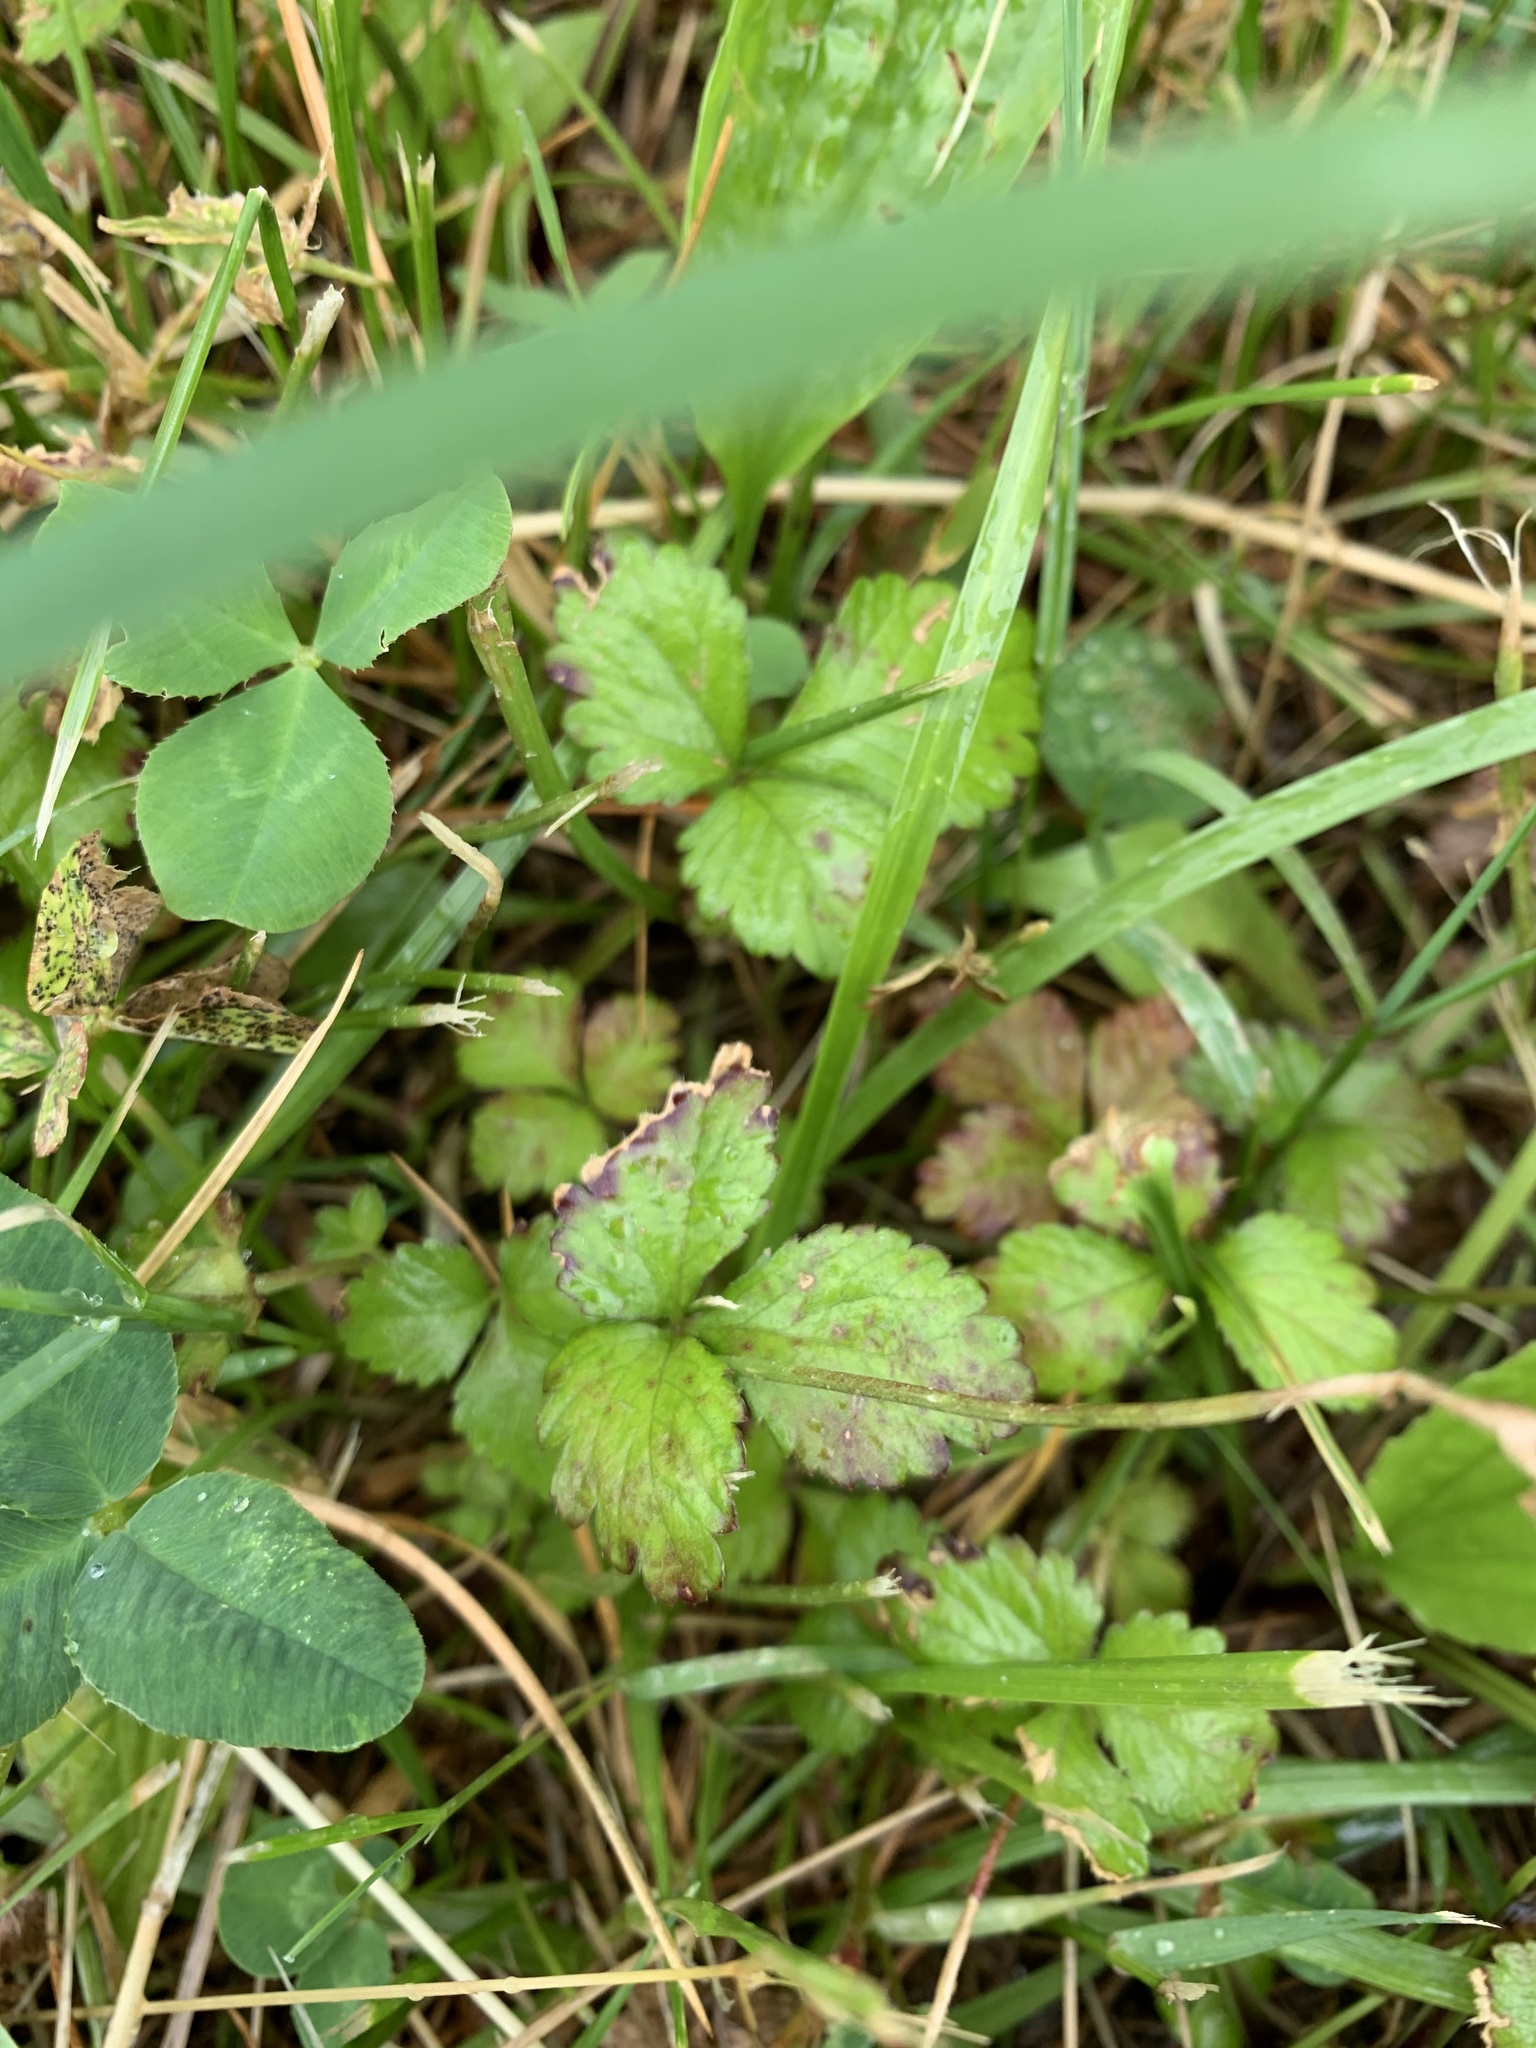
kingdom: Plantae
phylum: Tracheophyta
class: Magnoliopsida
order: Rosales
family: Rosaceae
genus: Potentilla
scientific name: Potentilla indica
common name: Yellow-flowered strawberry
